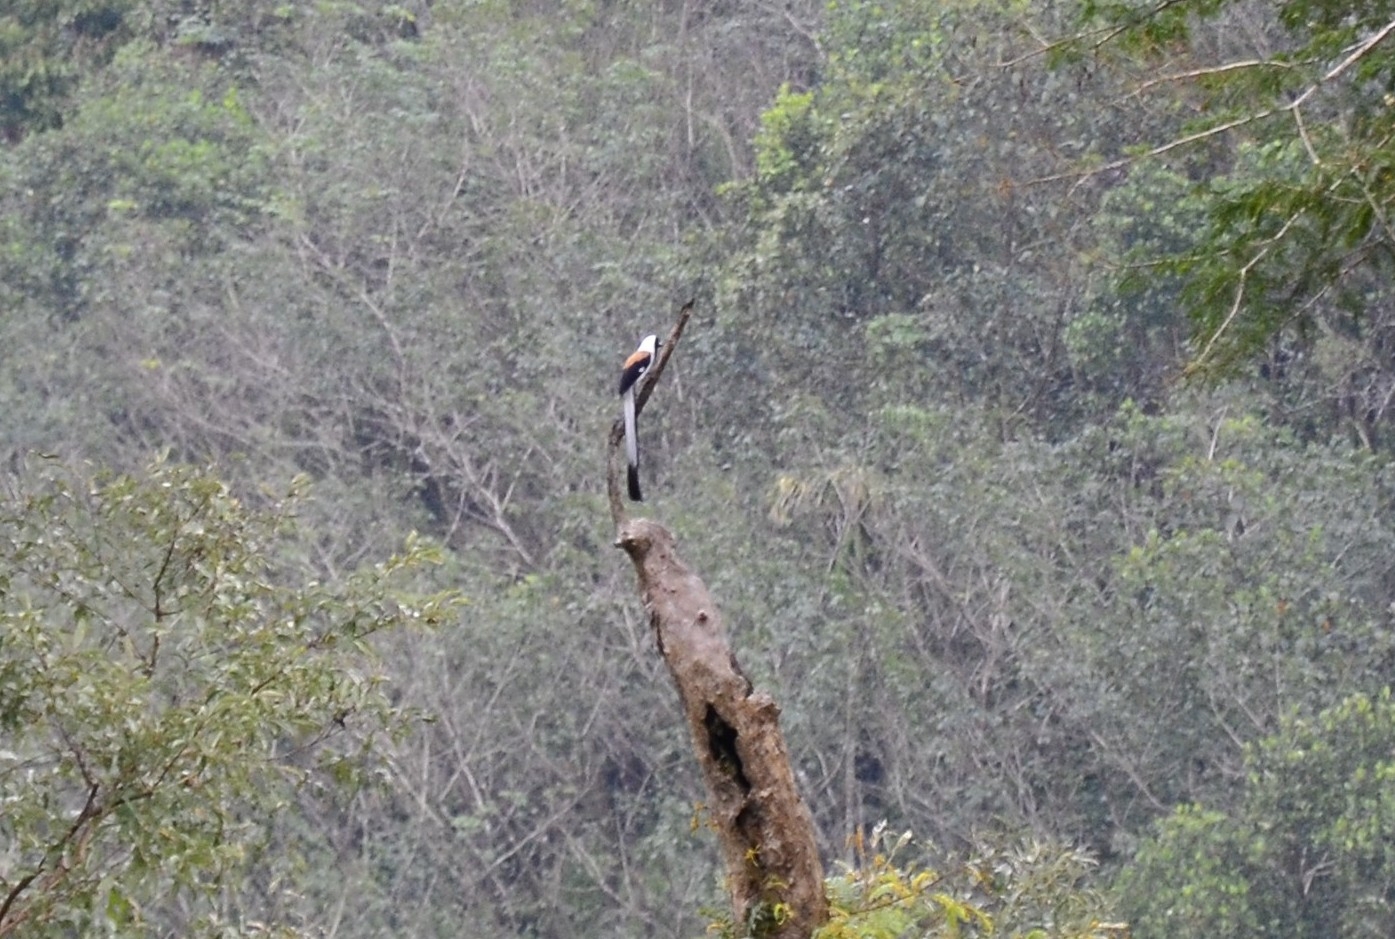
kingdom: Animalia
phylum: Chordata
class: Aves
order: Passeriformes
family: Corvidae
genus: Dendrocitta
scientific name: Dendrocitta leucogastra
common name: White-bellied treepie
